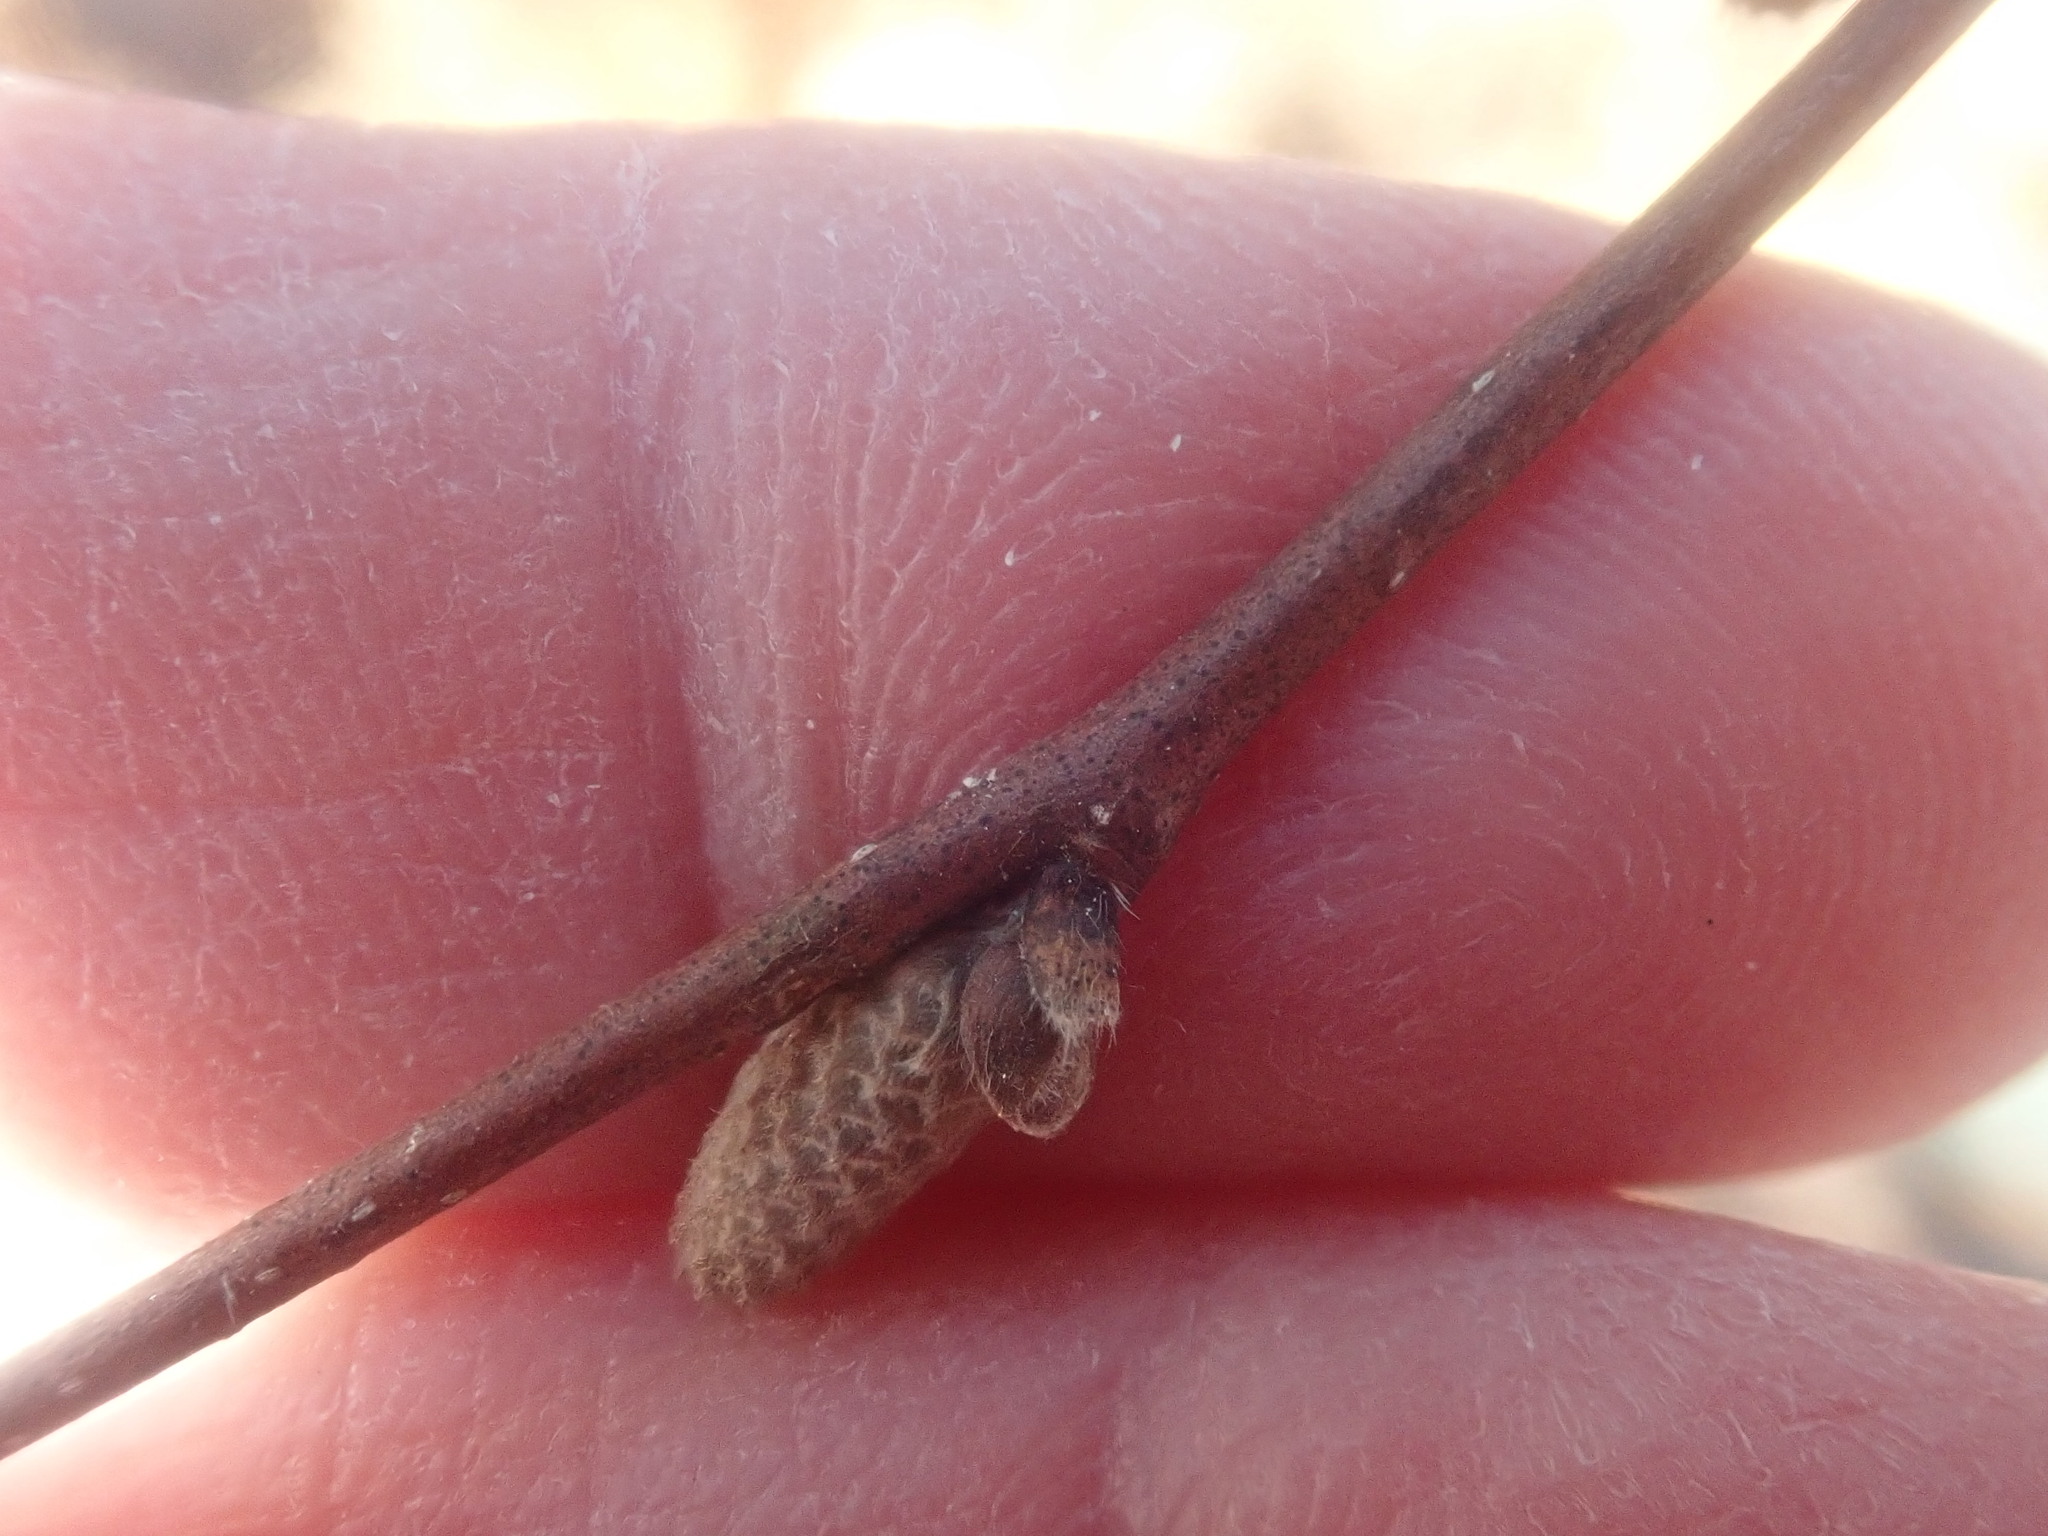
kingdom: Plantae
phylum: Tracheophyta
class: Magnoliopsida
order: Fagales
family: Betulaceae
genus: Corylus
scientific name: Corylus cornuta
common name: Beaked hazel
